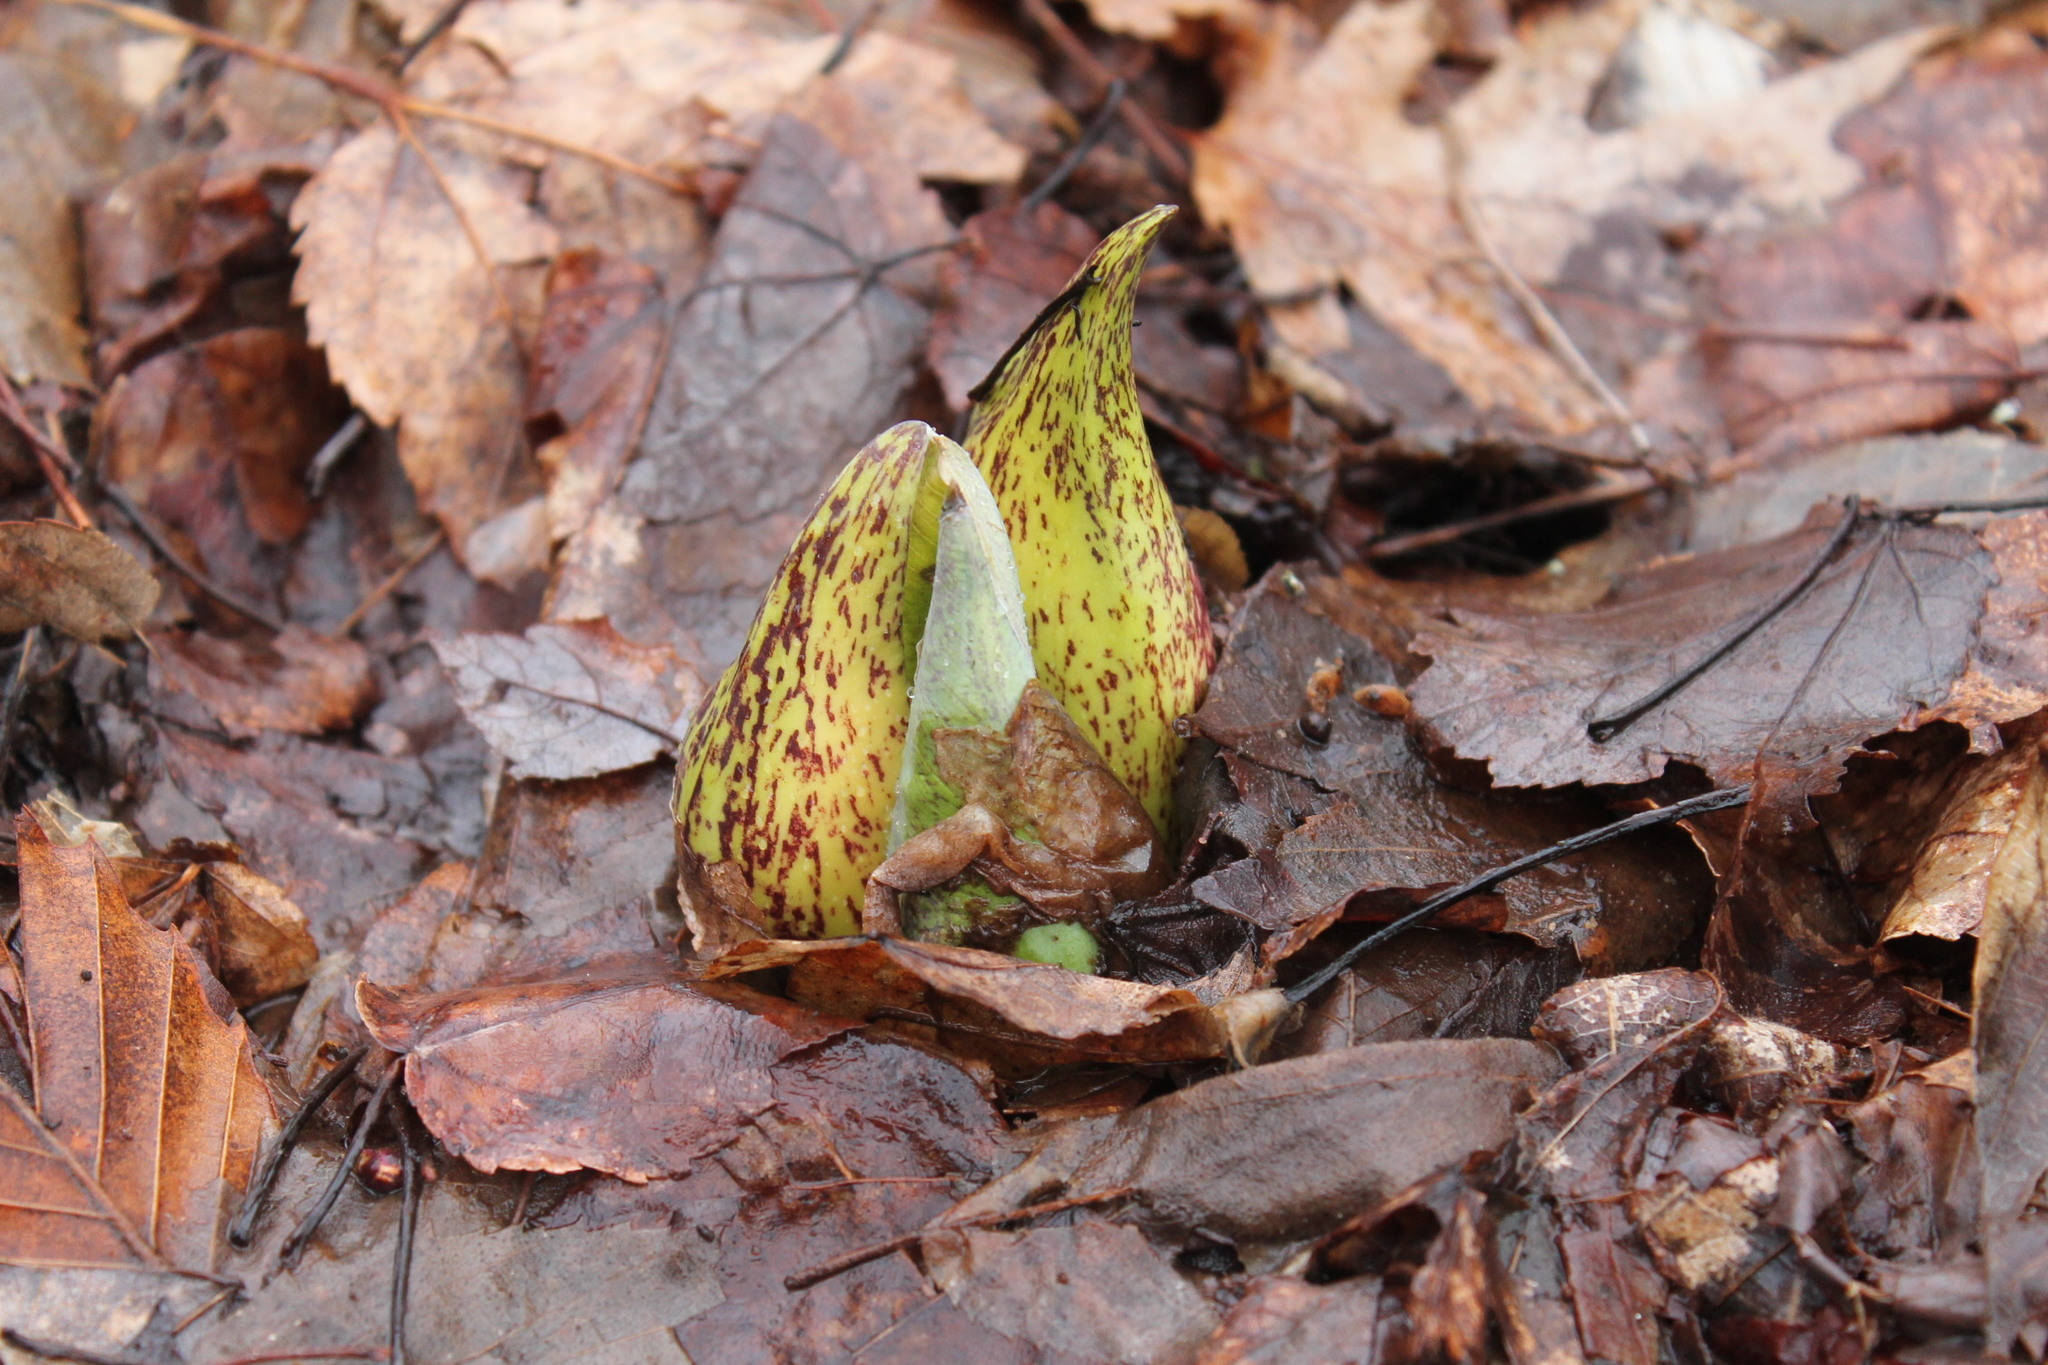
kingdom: Plantae
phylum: Tracheophyta
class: Liliopsida
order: Alismatales
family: Araceae
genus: Symplocarpus
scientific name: Symplocarpus foetidus
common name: Eastern skunk cabbage
